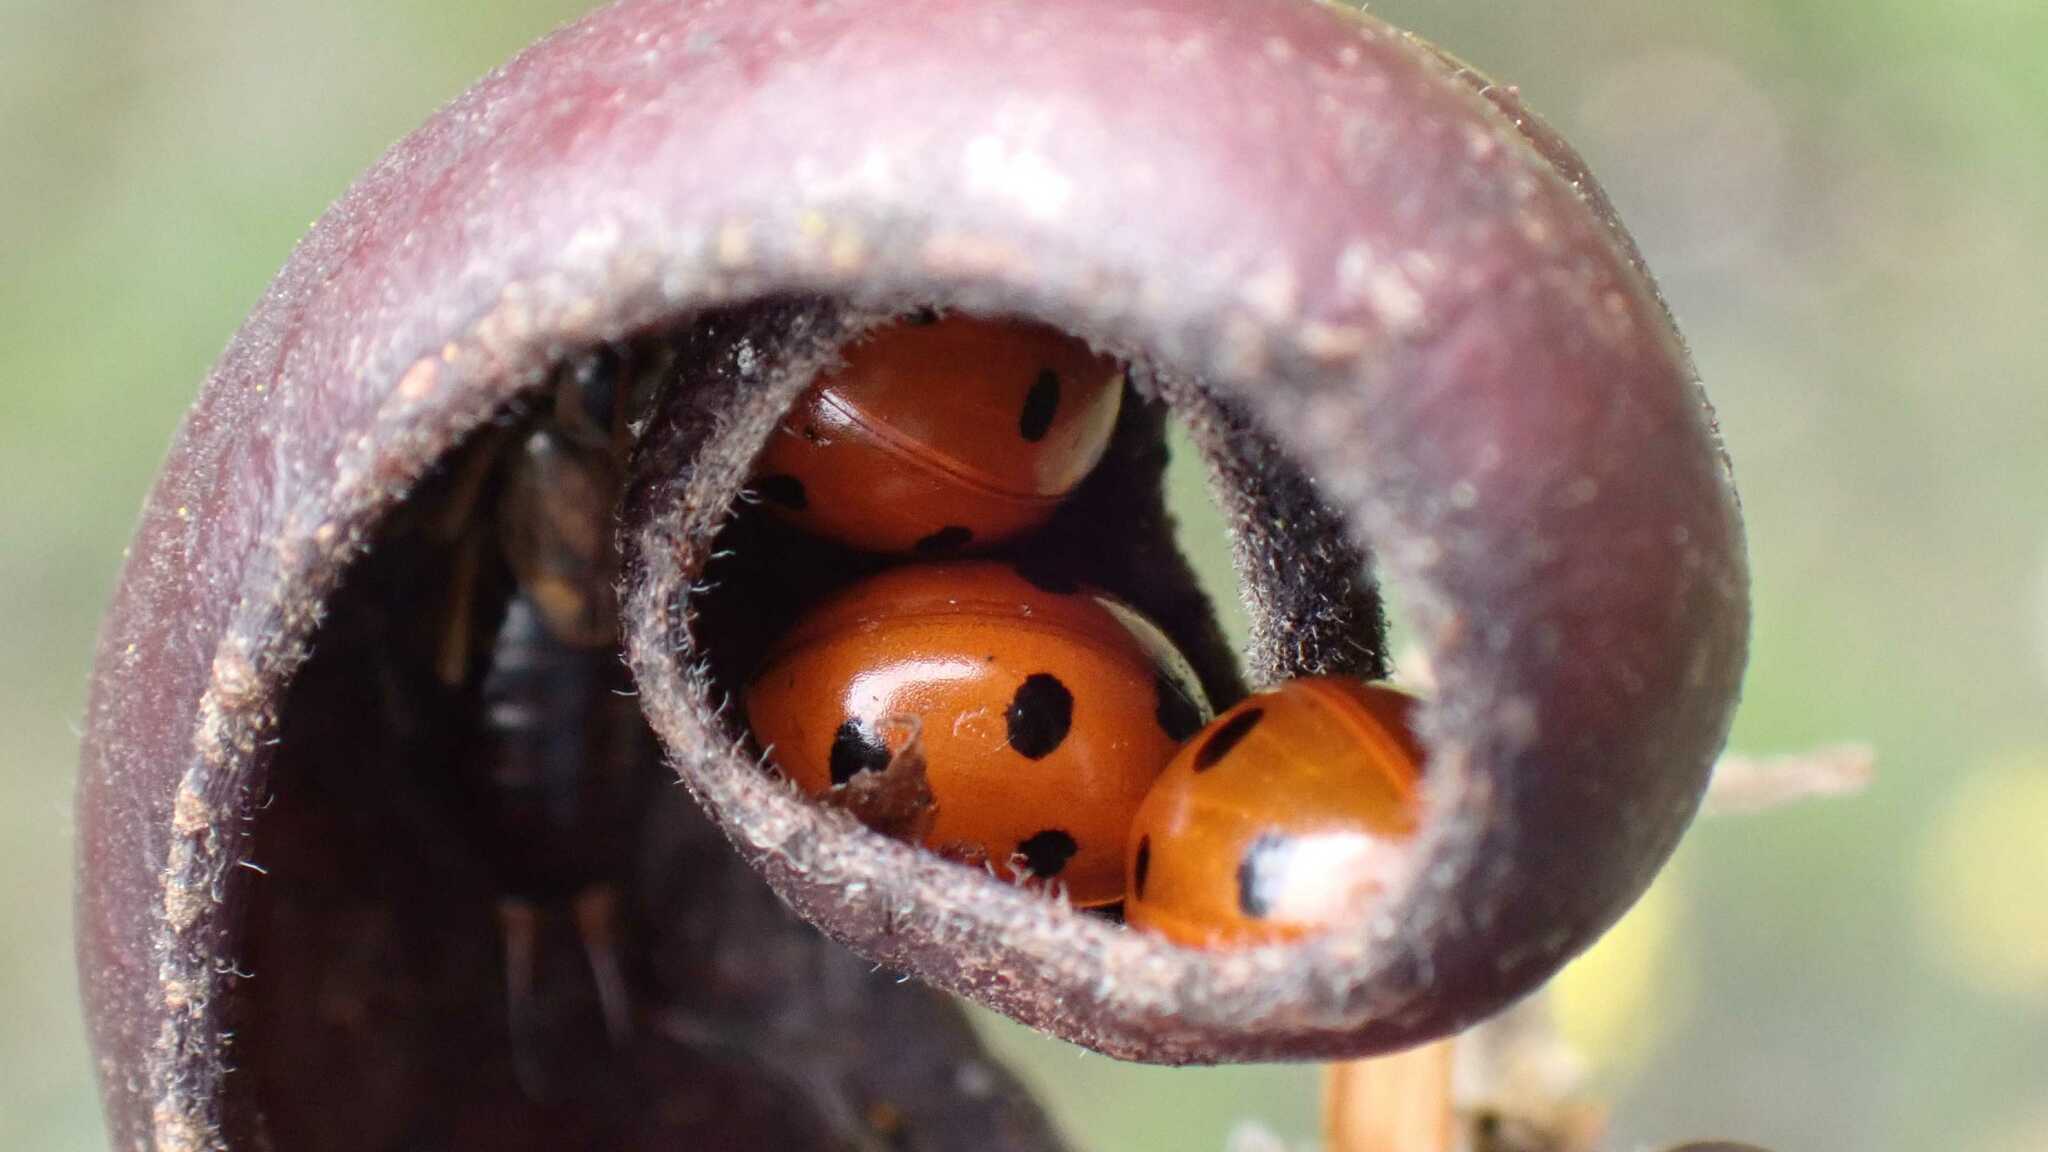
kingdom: Animalia
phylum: Arthropoda
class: Insecta
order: Coleoptera
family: Coccinellidae
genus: Coccinella
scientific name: Coccinella septempunctata
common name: Sevenspotted lady beetle
